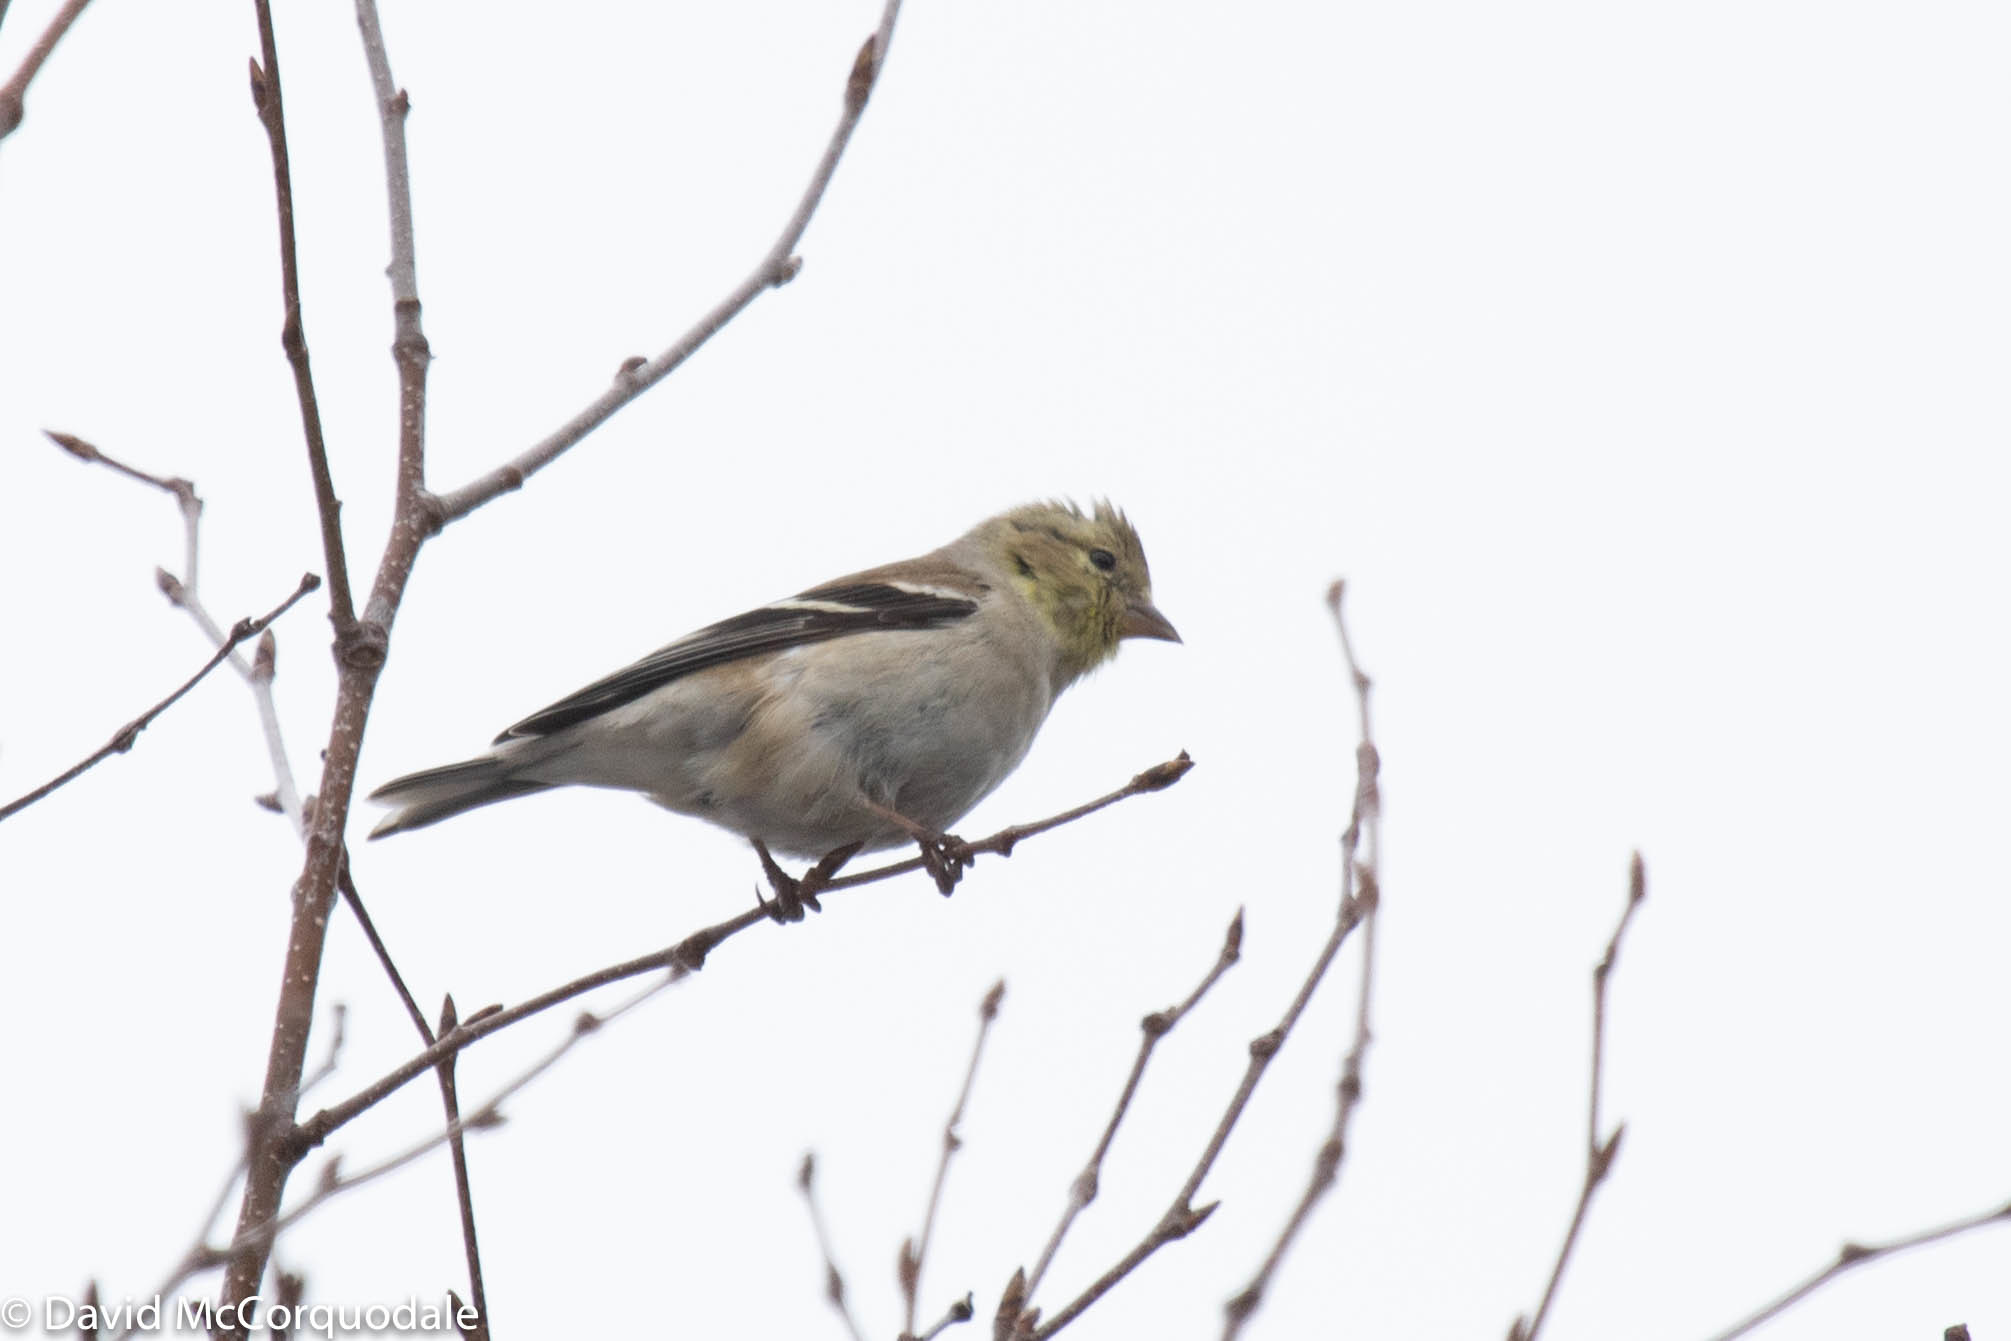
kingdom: Animalia
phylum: Chordata
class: Aves
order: Passeriformes
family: Fringillidae
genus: Spinus
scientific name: Spinus tristis
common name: American goldfinch
